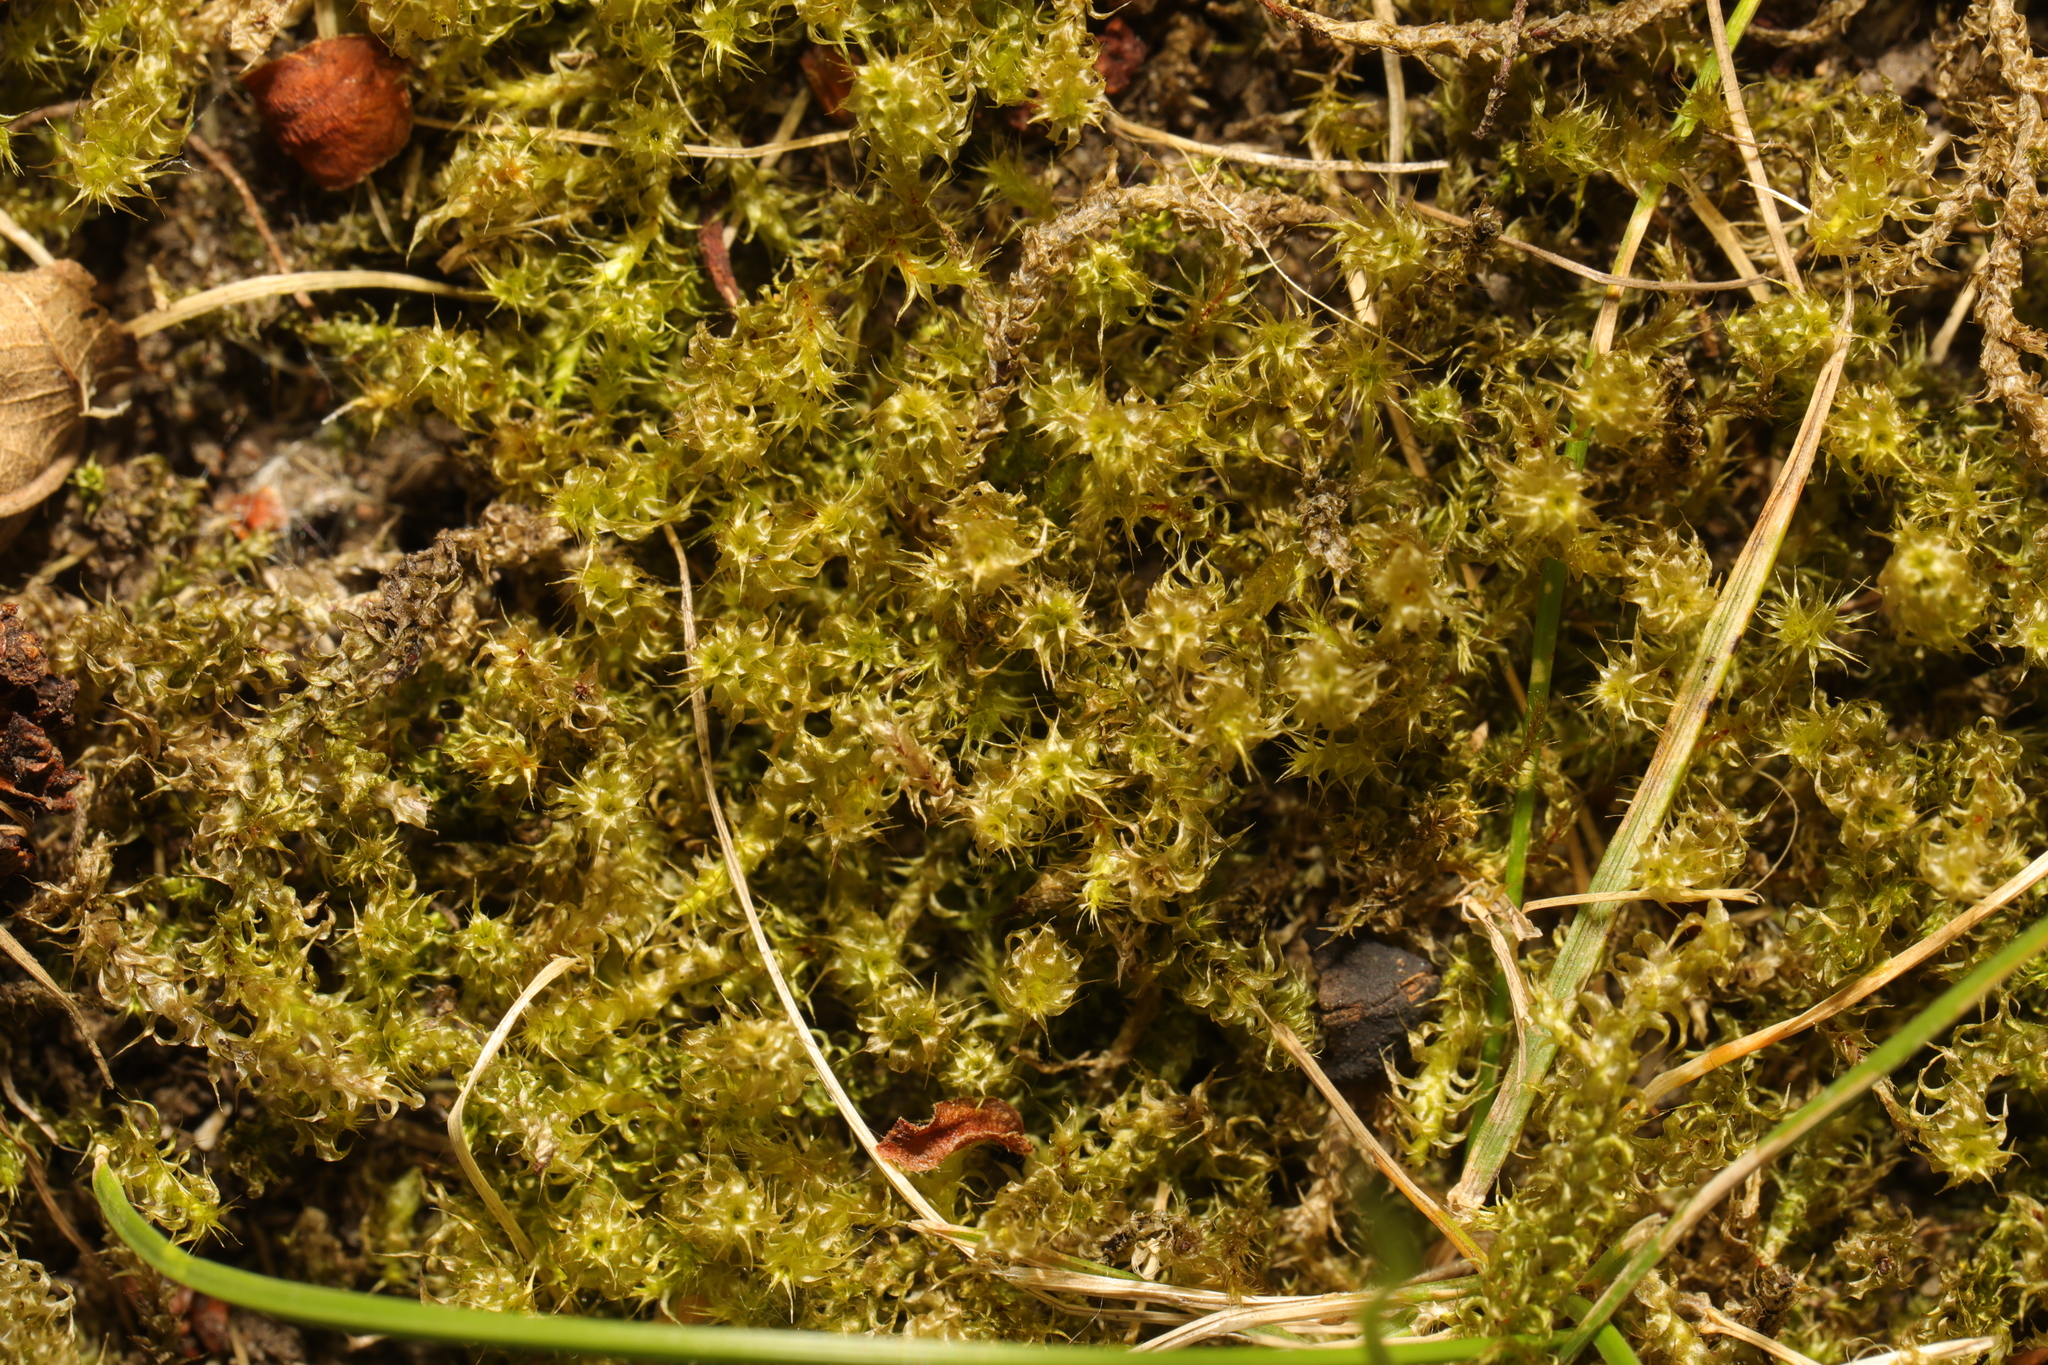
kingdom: Plantae
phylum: Bryophyta
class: Bryopsida
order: Hypnales
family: Hylocomiaceae
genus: Rhytidiadelphus
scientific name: Rhytidiadelphus squarrosus
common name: Springy turf-moss
